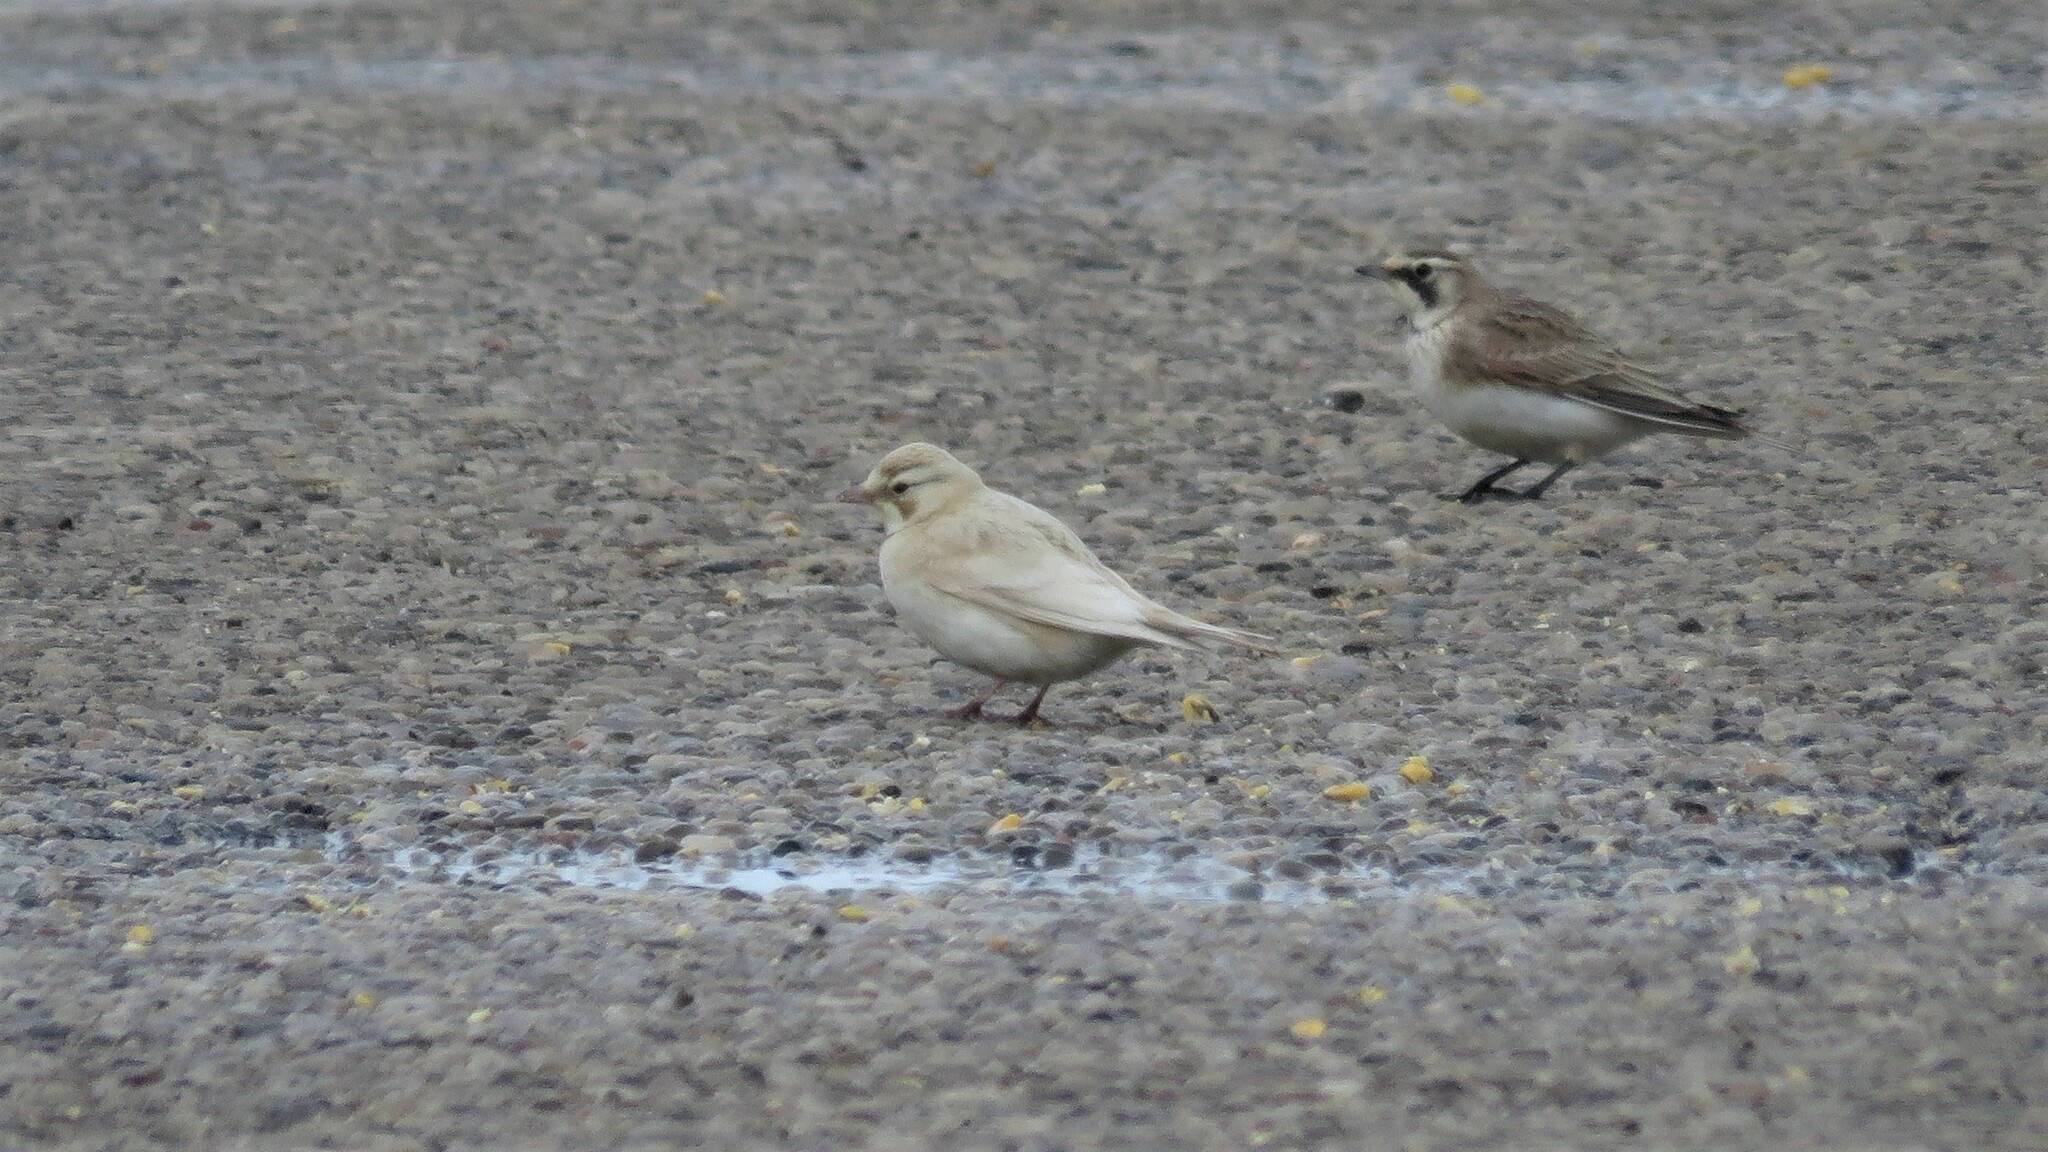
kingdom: Animalia
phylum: Chordata
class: Aves
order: Passeriformes
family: Alaudidae
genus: Eremophila
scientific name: Eremophila alpestris
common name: Horned lark
